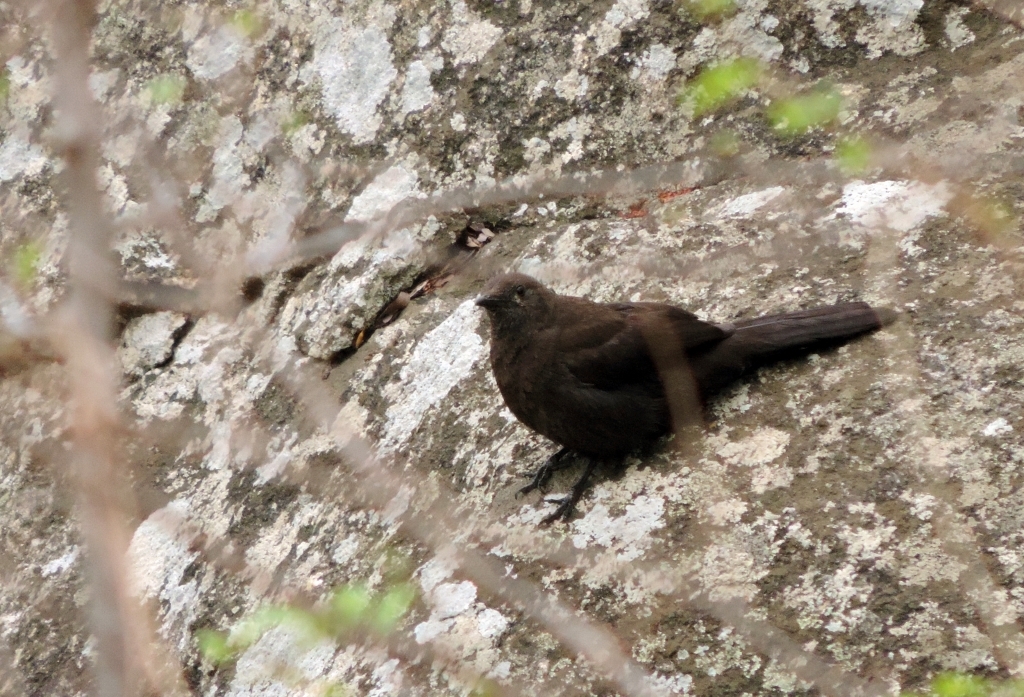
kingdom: Animalia
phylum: Chordata
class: Aves
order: Passeriformes
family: Muscicapidae
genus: Pinarornis
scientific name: Pinarornis plumosus
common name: Boulder chat
